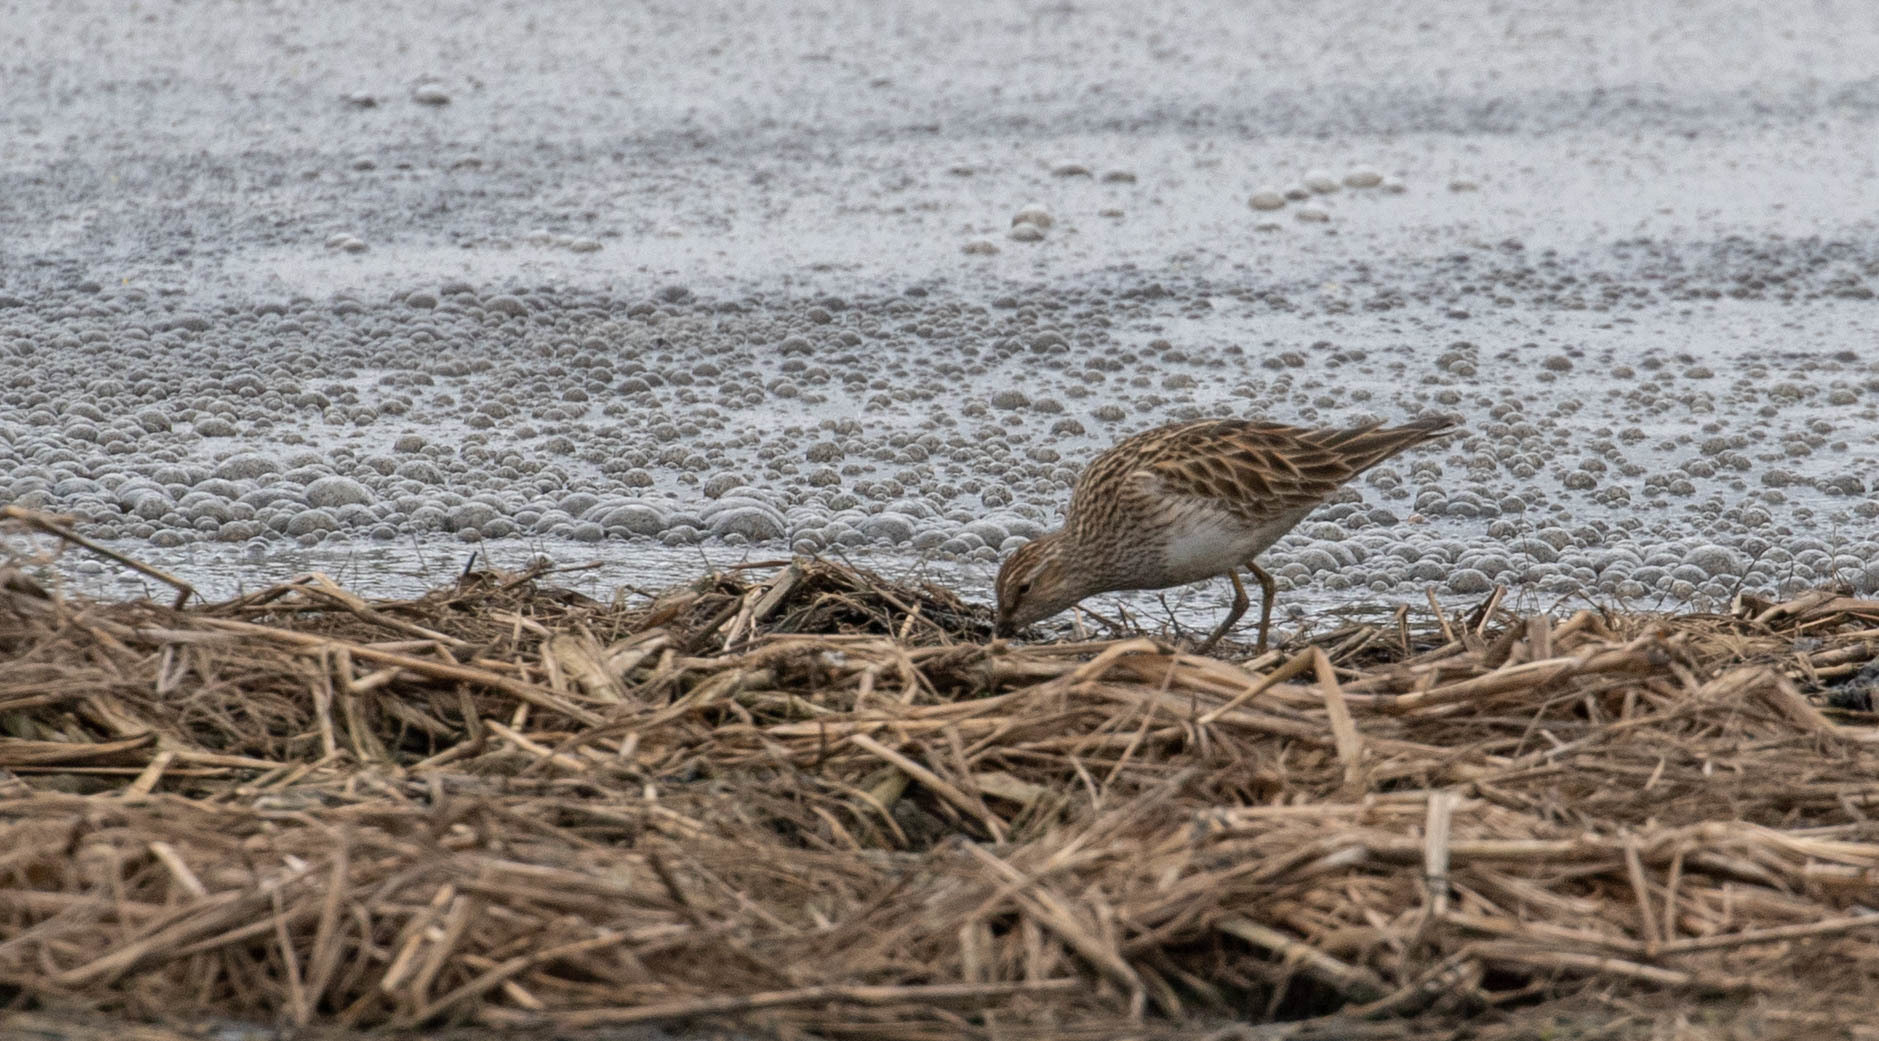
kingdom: Animalia
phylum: Chordata
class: Aves
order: Charadriiformes
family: Scolopacidae
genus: Calidris
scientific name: Calidris melanotos
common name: Pectoral sandpiper
